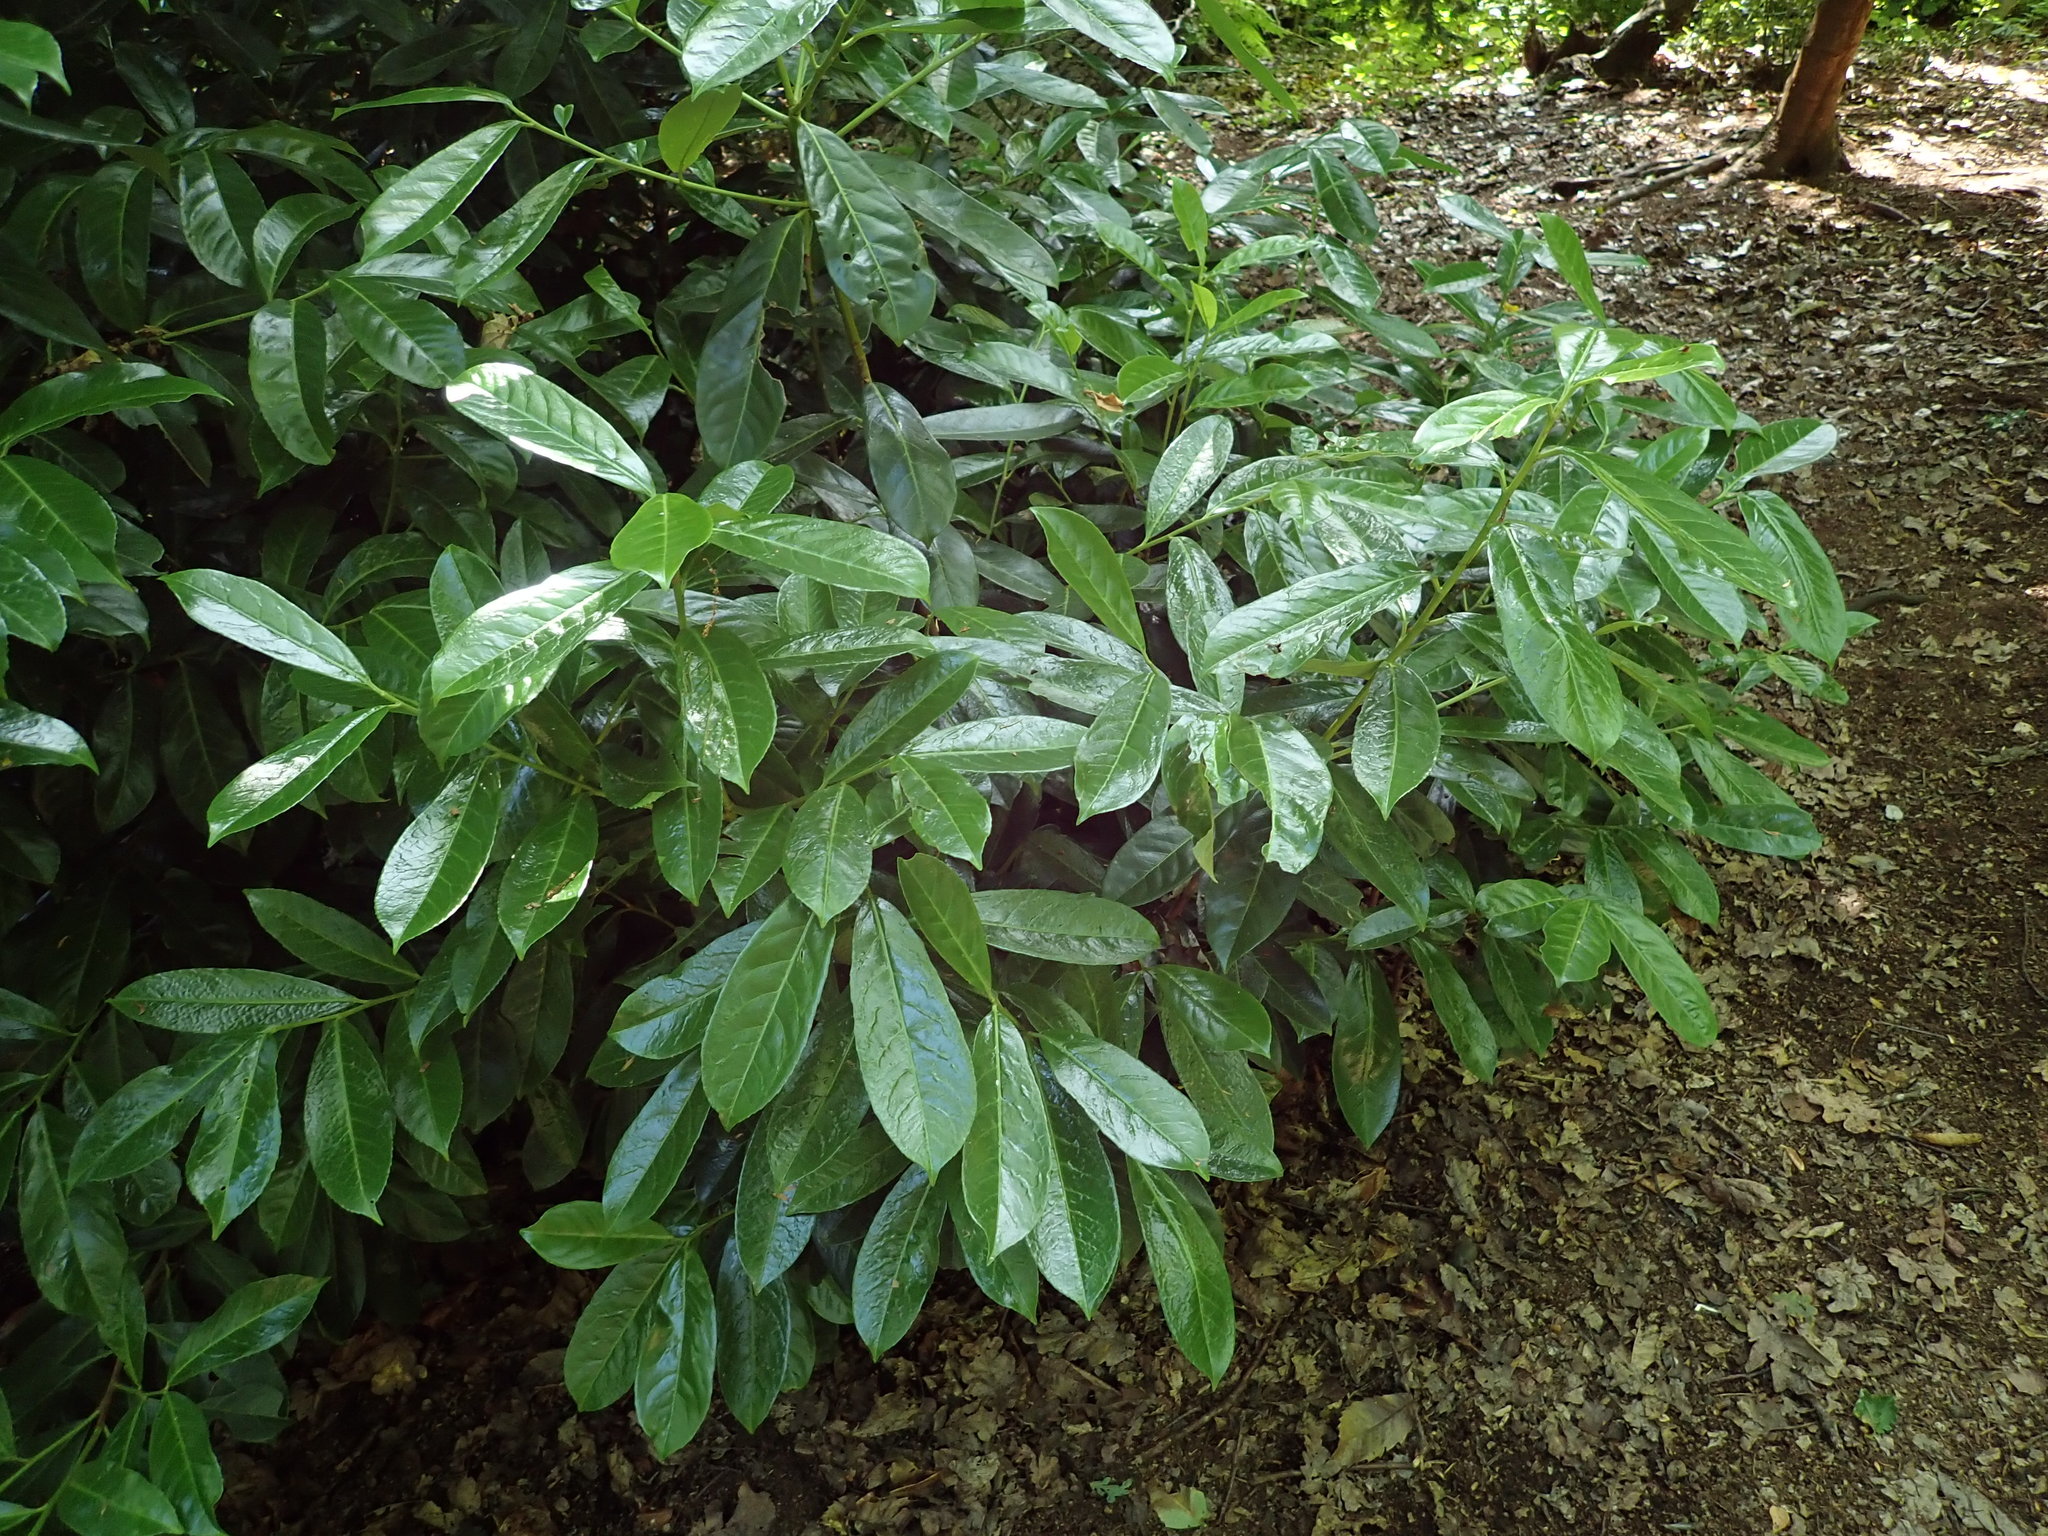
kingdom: Plantae
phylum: Tracheophyta
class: Magnoliopsida
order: Rosales
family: Rosaceae
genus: Prunus
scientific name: Prunus laurocerasus
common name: Cherry laurel
